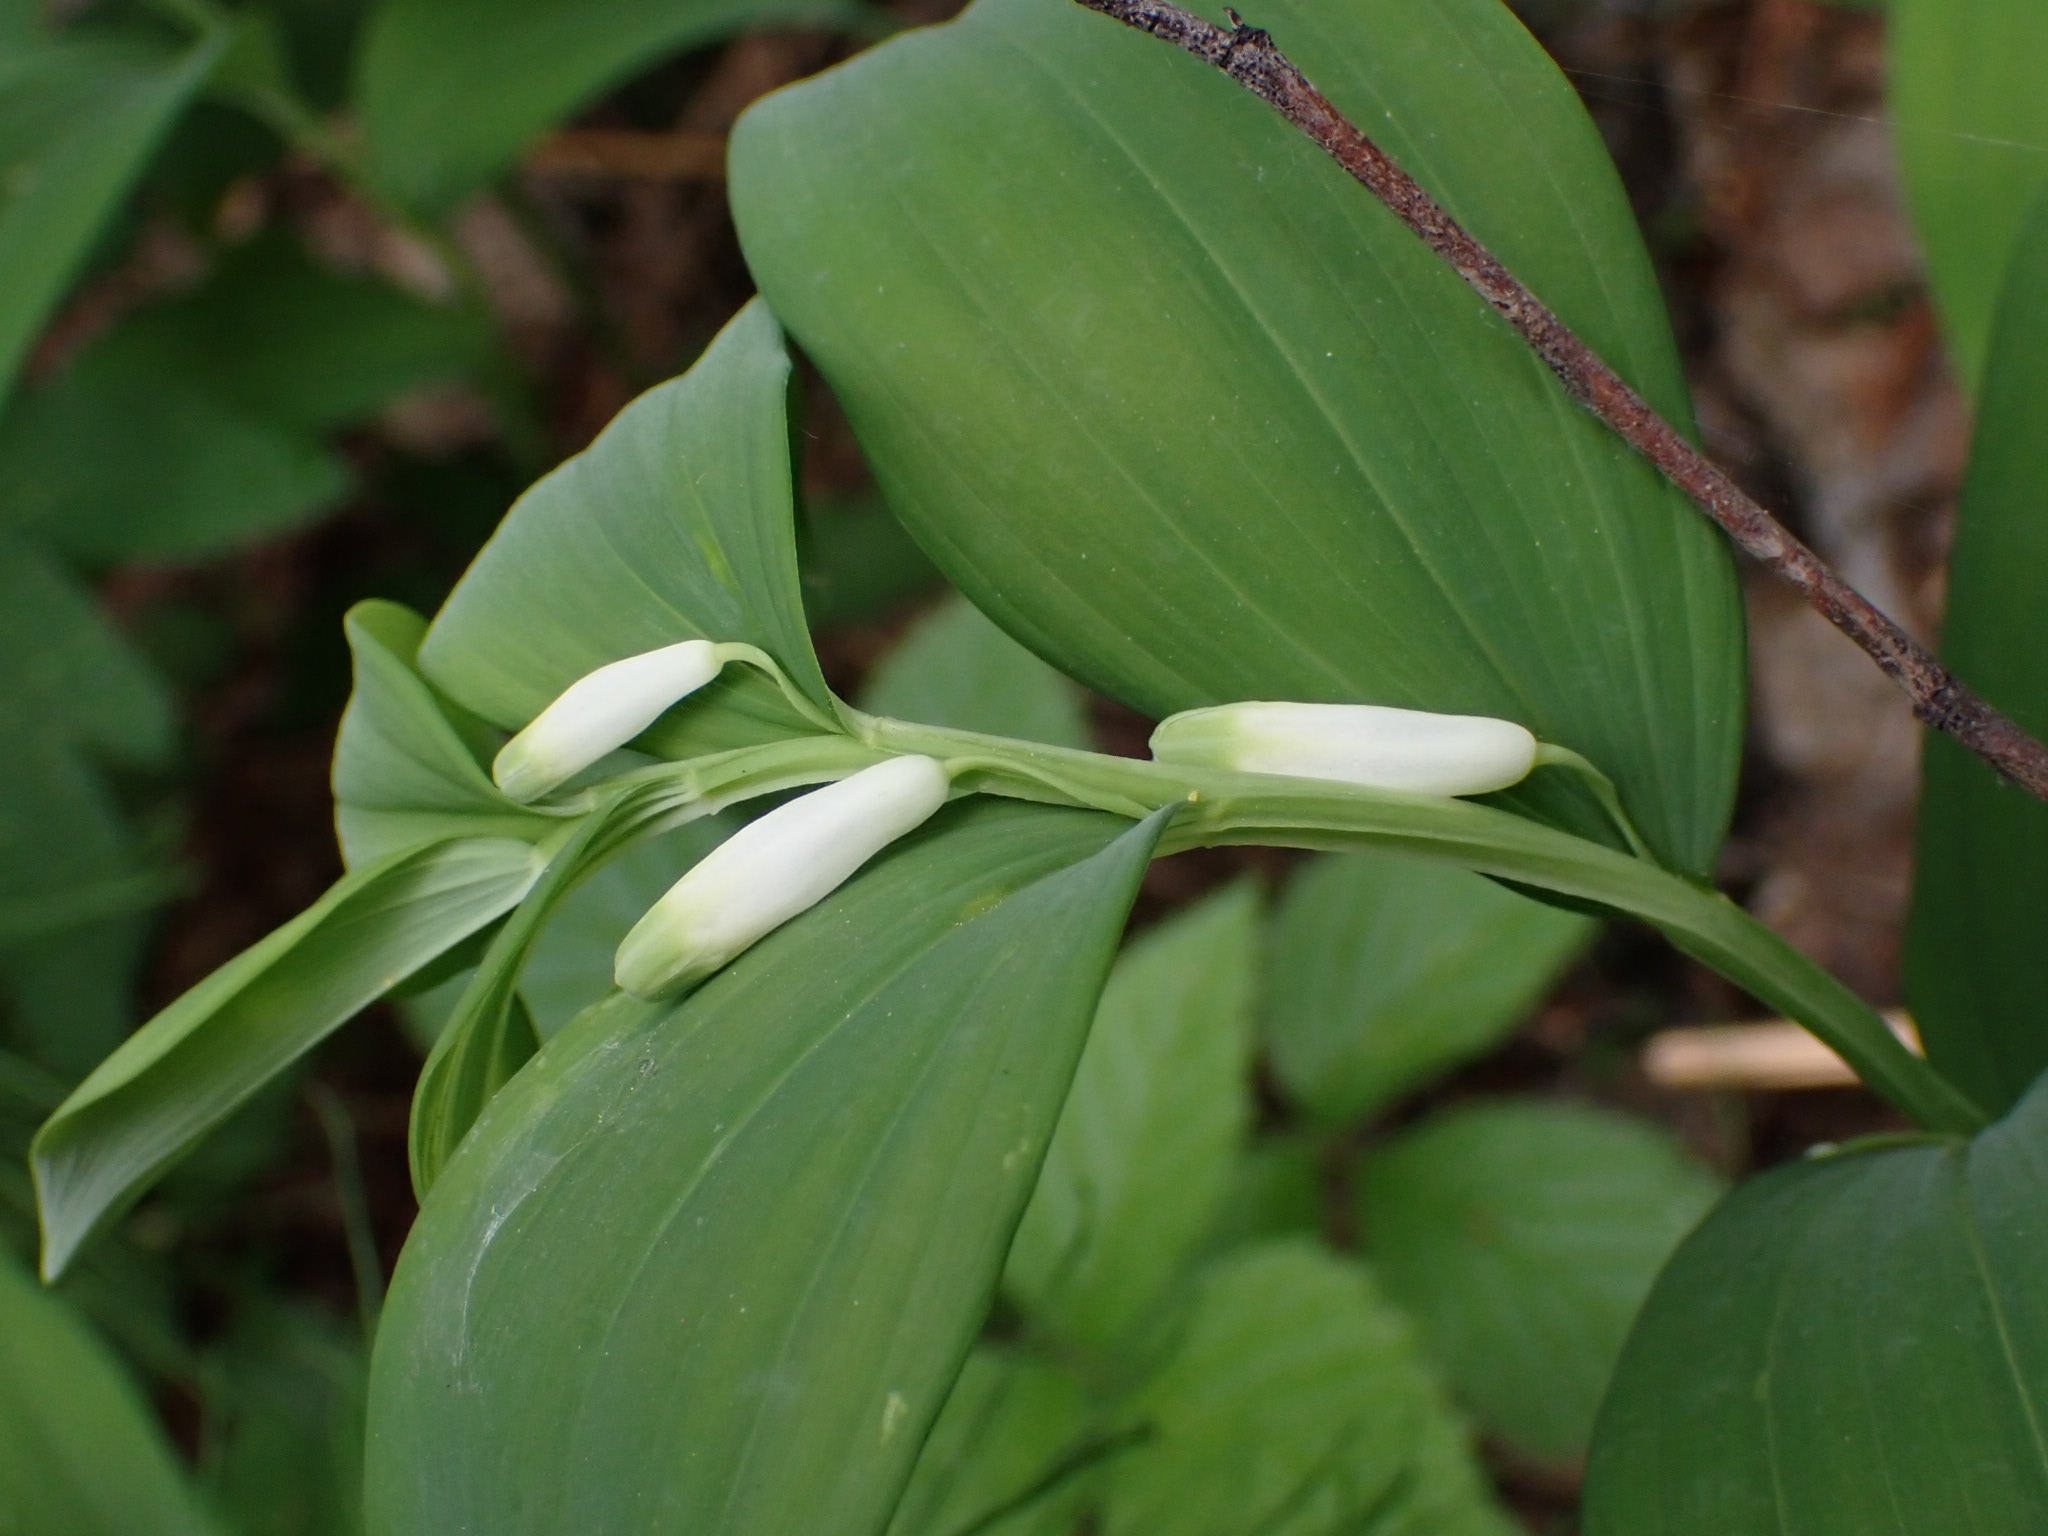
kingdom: Plantae
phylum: Tracheophyta
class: Liliopsida
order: Asparagales
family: Asparagaceae
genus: Polygonatum
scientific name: Polygonatum odoratum
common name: Angular solomon's-seal
